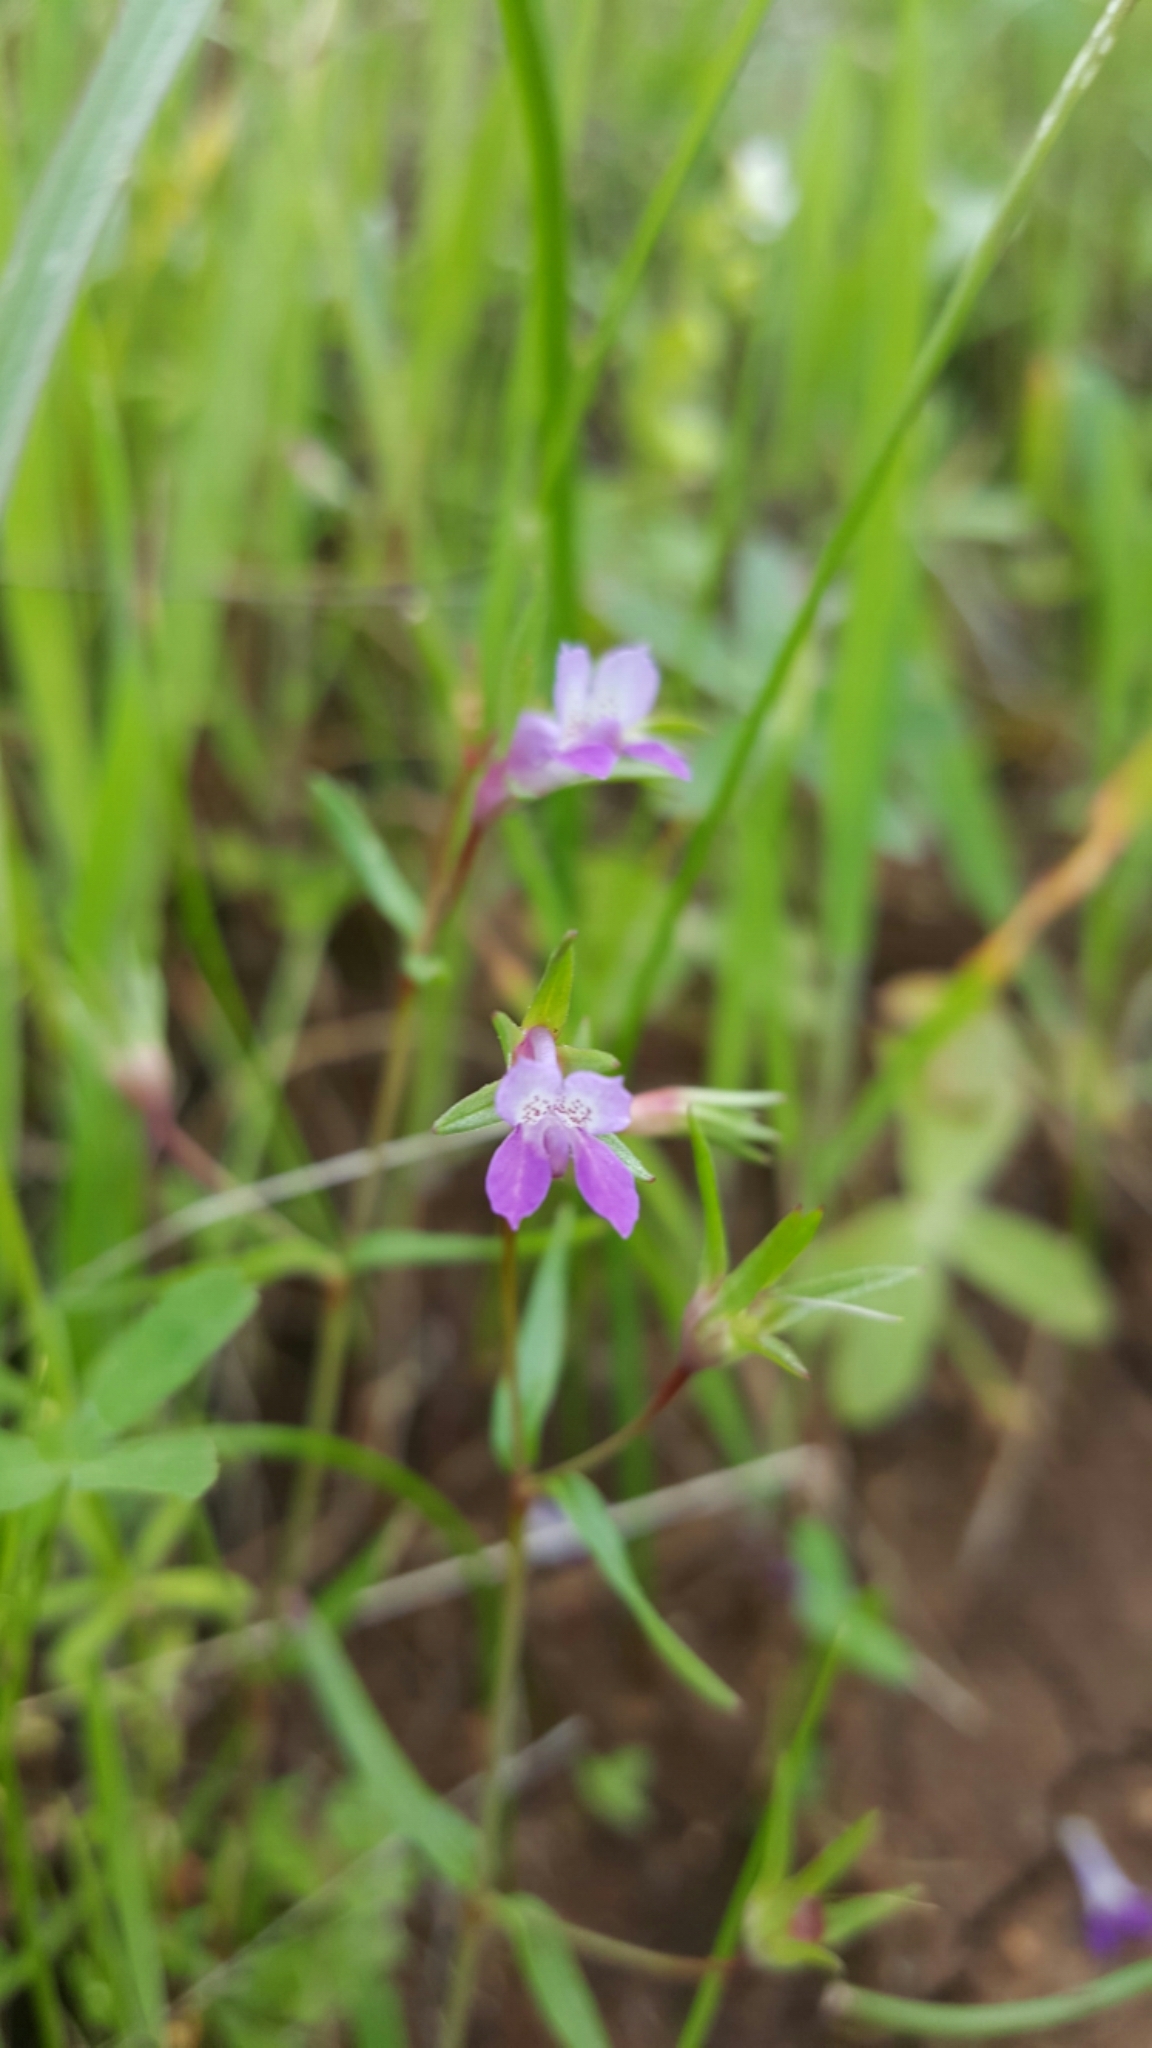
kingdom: Plantae
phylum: Tracheophyta
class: Magnoliopsida
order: Lamiales
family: Plantaginaceae
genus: Collinsia
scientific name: Collinsia sparsiflora
